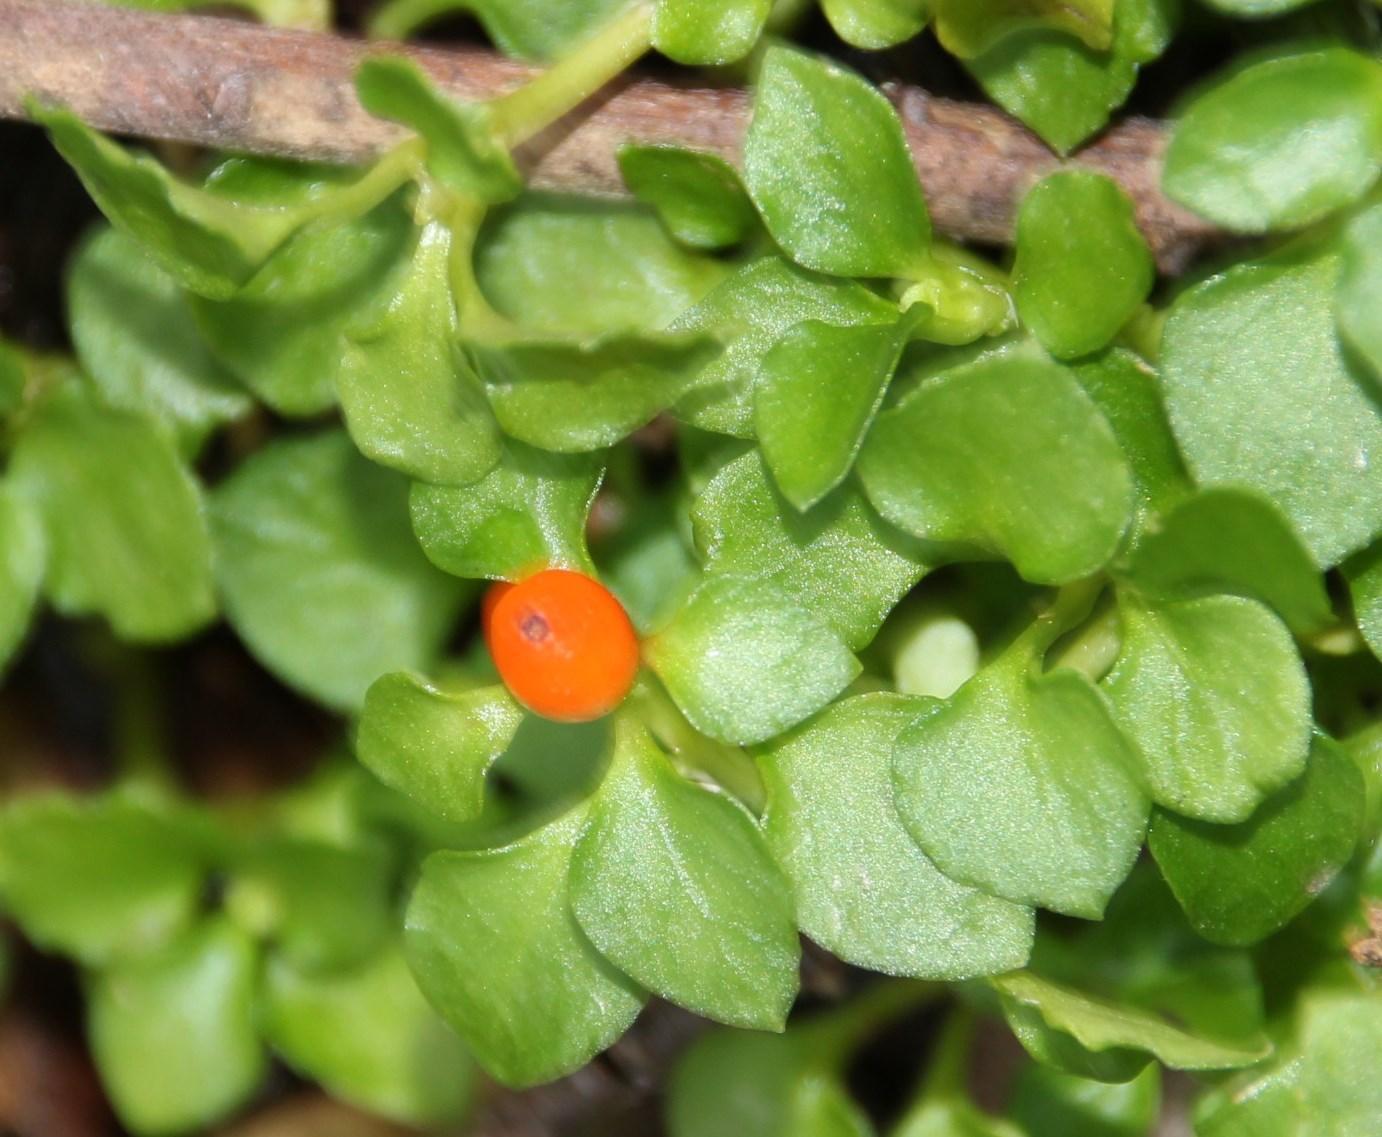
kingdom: Plantae
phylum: Tracheophyta
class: Magnoliopsida
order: Gentianales
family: Rubiaceae
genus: Nertera
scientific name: Nertera granadensis
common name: Beadplant
